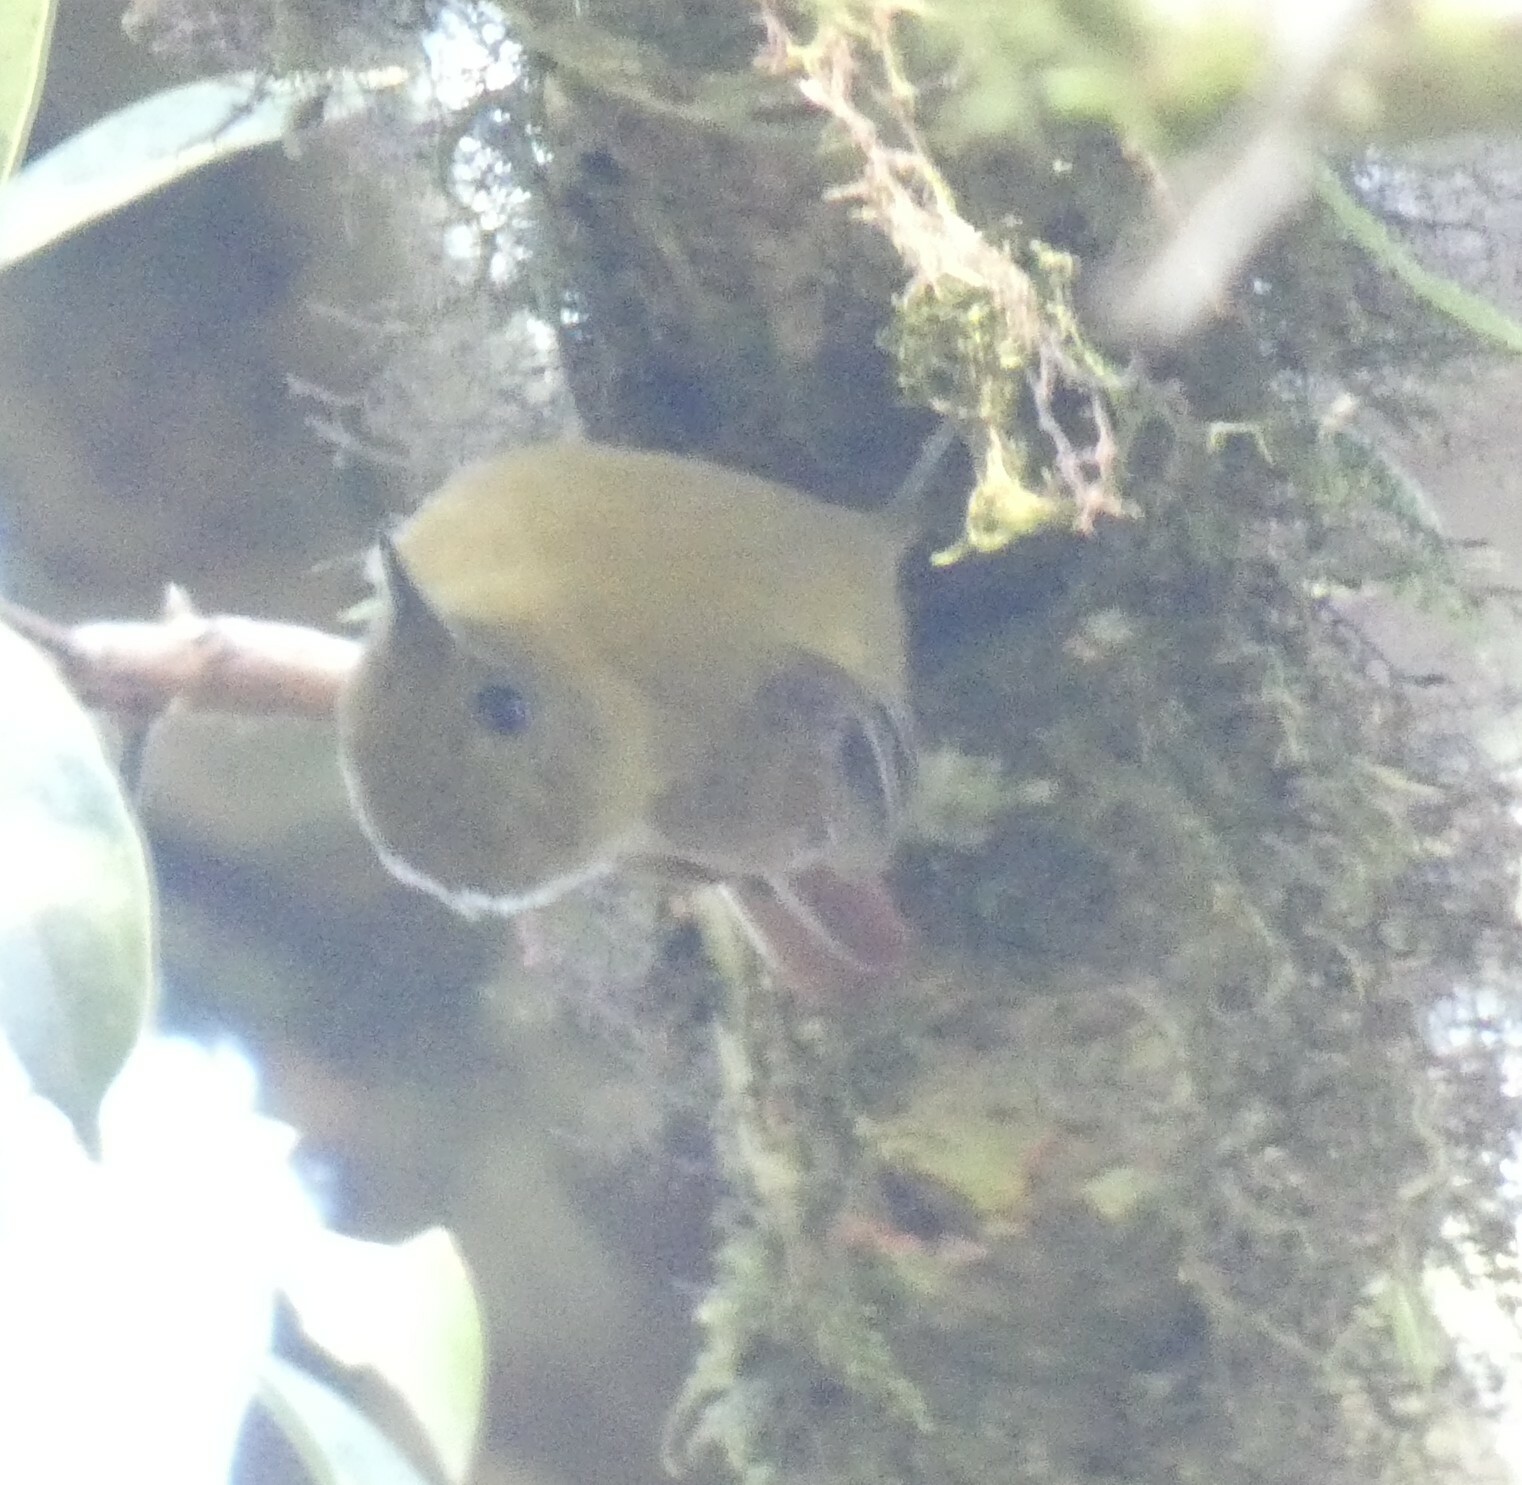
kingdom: Animalia
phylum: Chordata
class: Aves
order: Passeriformes
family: Furnariidae
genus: Sittasomus
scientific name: Sittasomus griseicapillus
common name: Olivaceous woodcreeper
